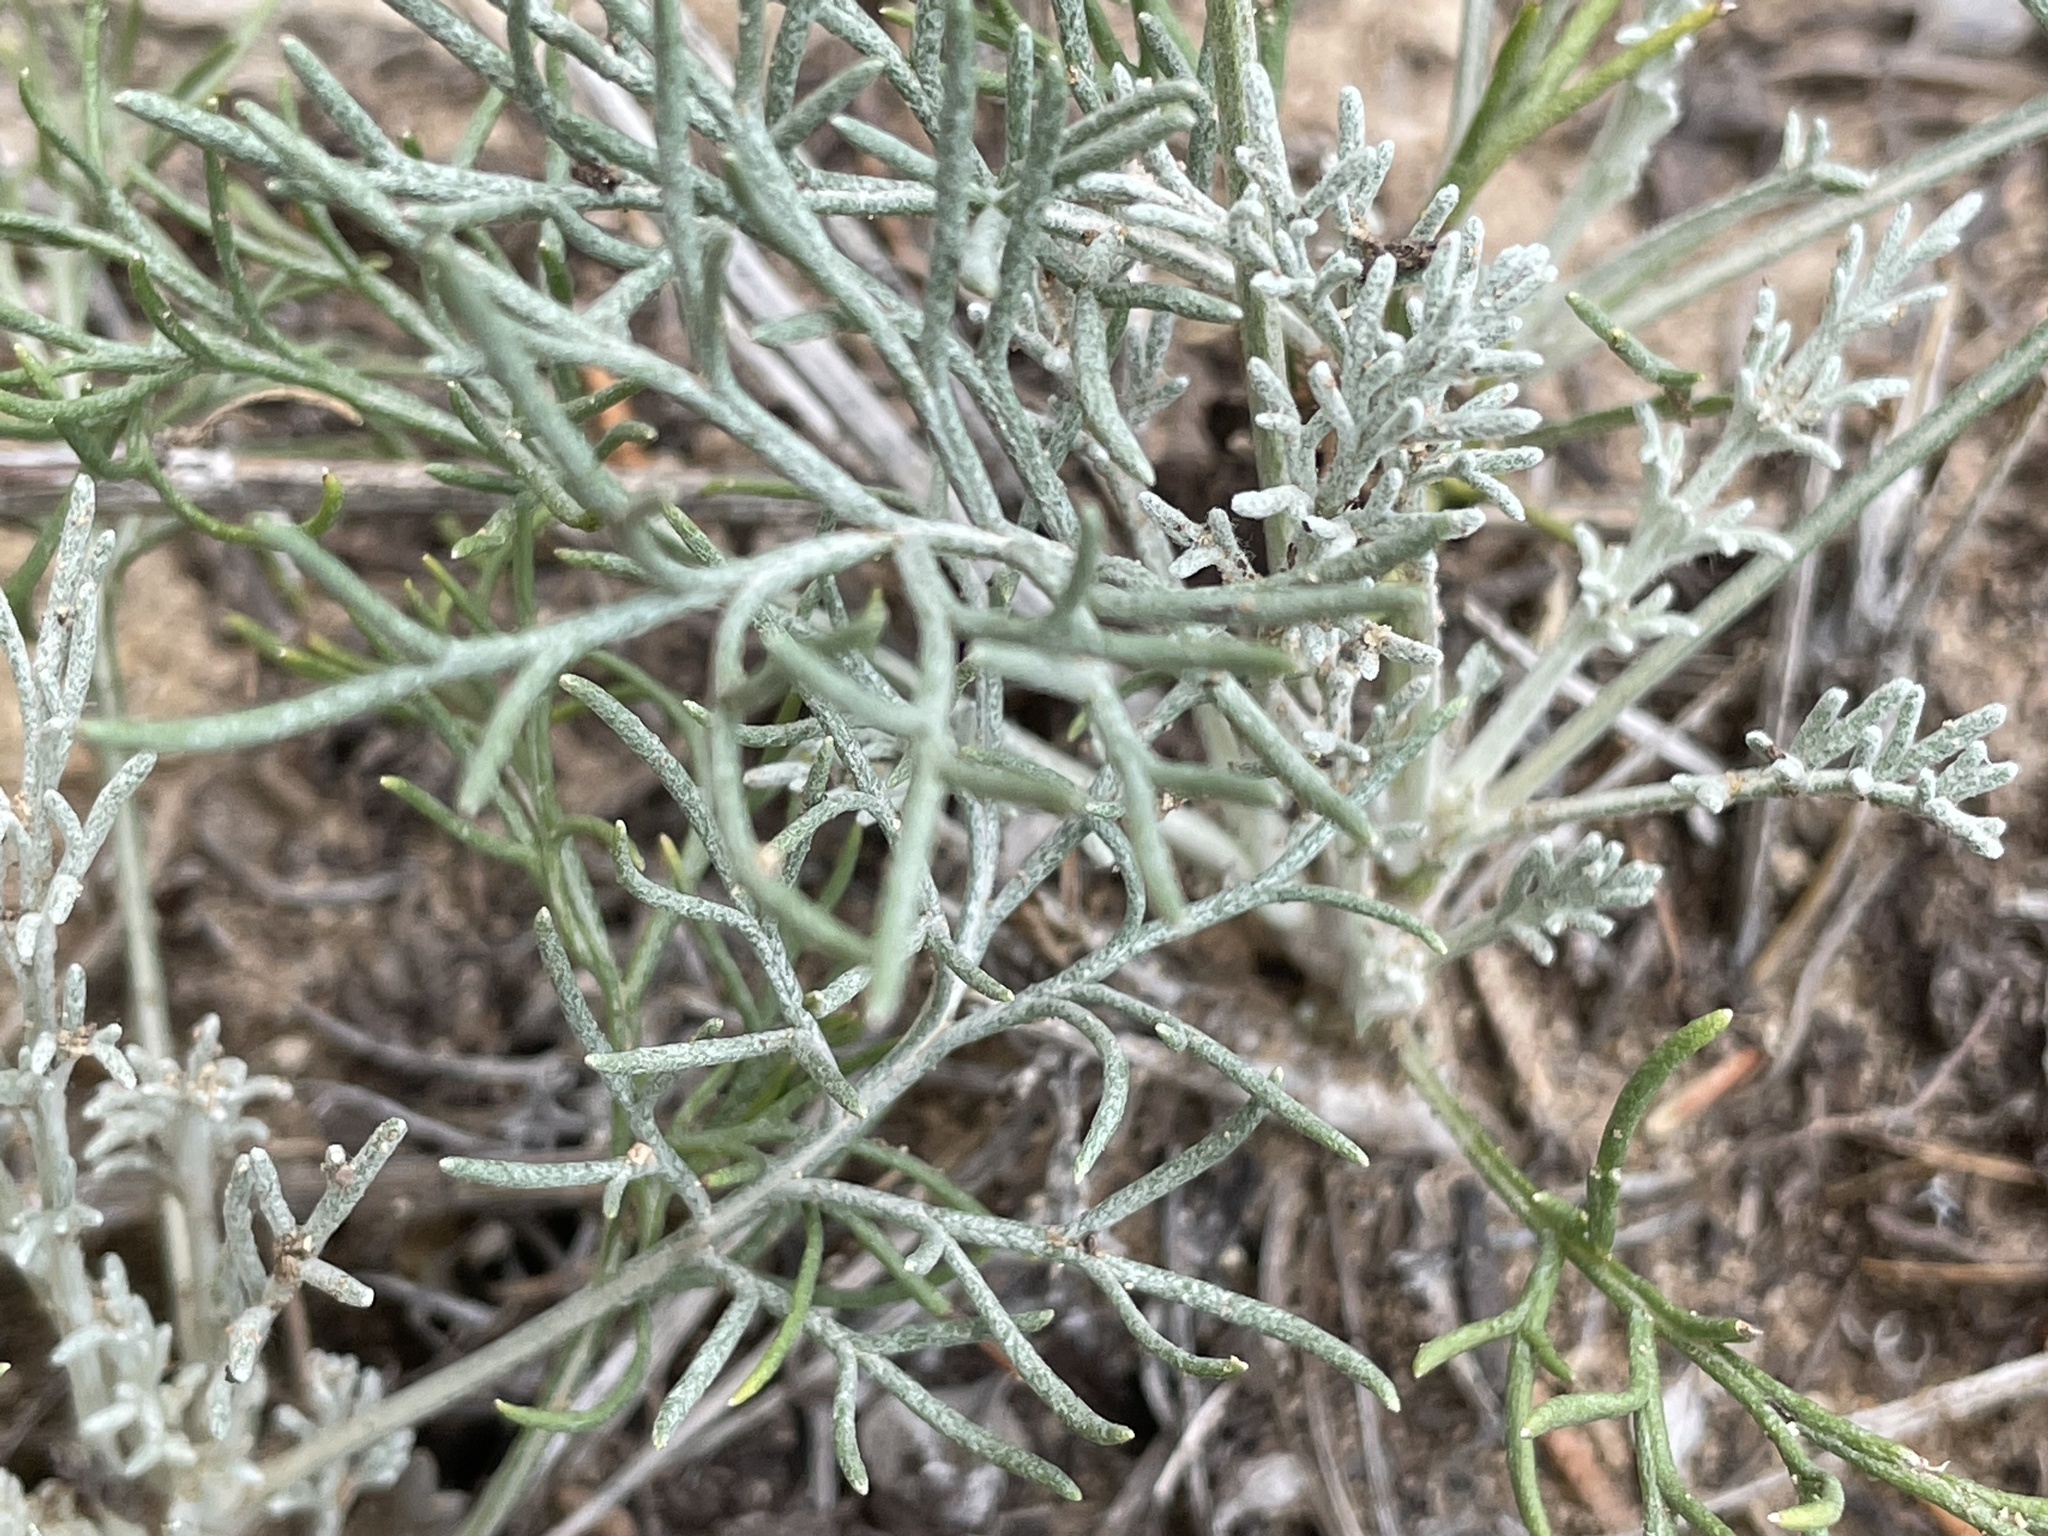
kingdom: Plantae
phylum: Tracheophyta
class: Magnoliopsida
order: Asterales
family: Asteraceae
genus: Hymenopappus
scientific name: Hymenopappus filifolius
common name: Columbia cutleaf
